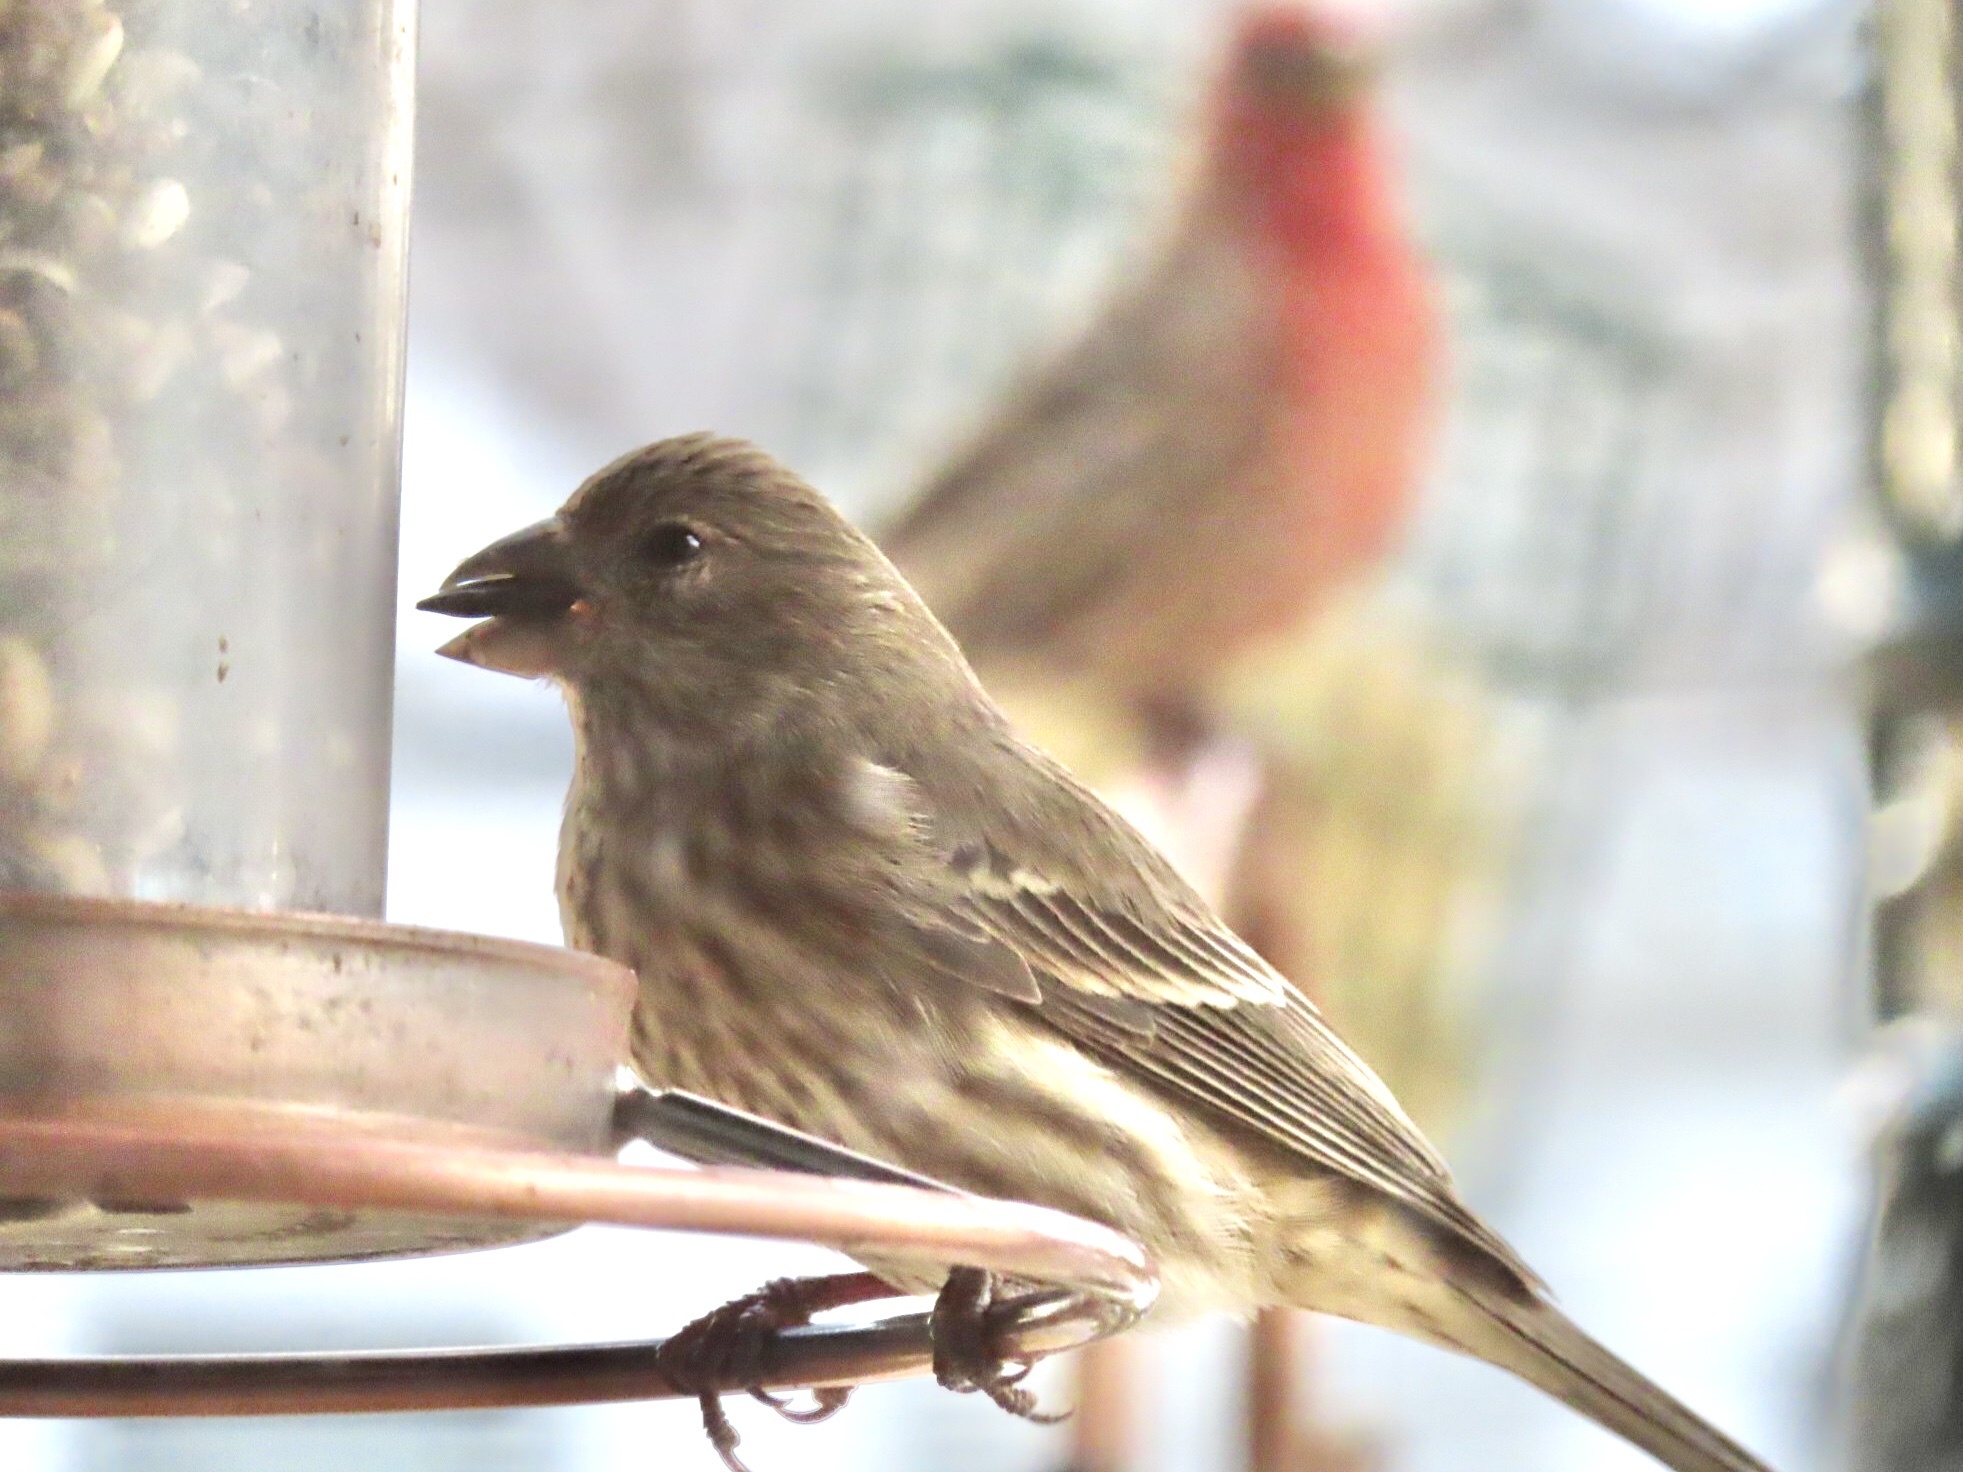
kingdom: Animalia
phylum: Chordata
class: Aves
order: Passeriformes
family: Fringillidae
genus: Haemorhous
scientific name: Haemorhous mexicanus
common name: House finch
